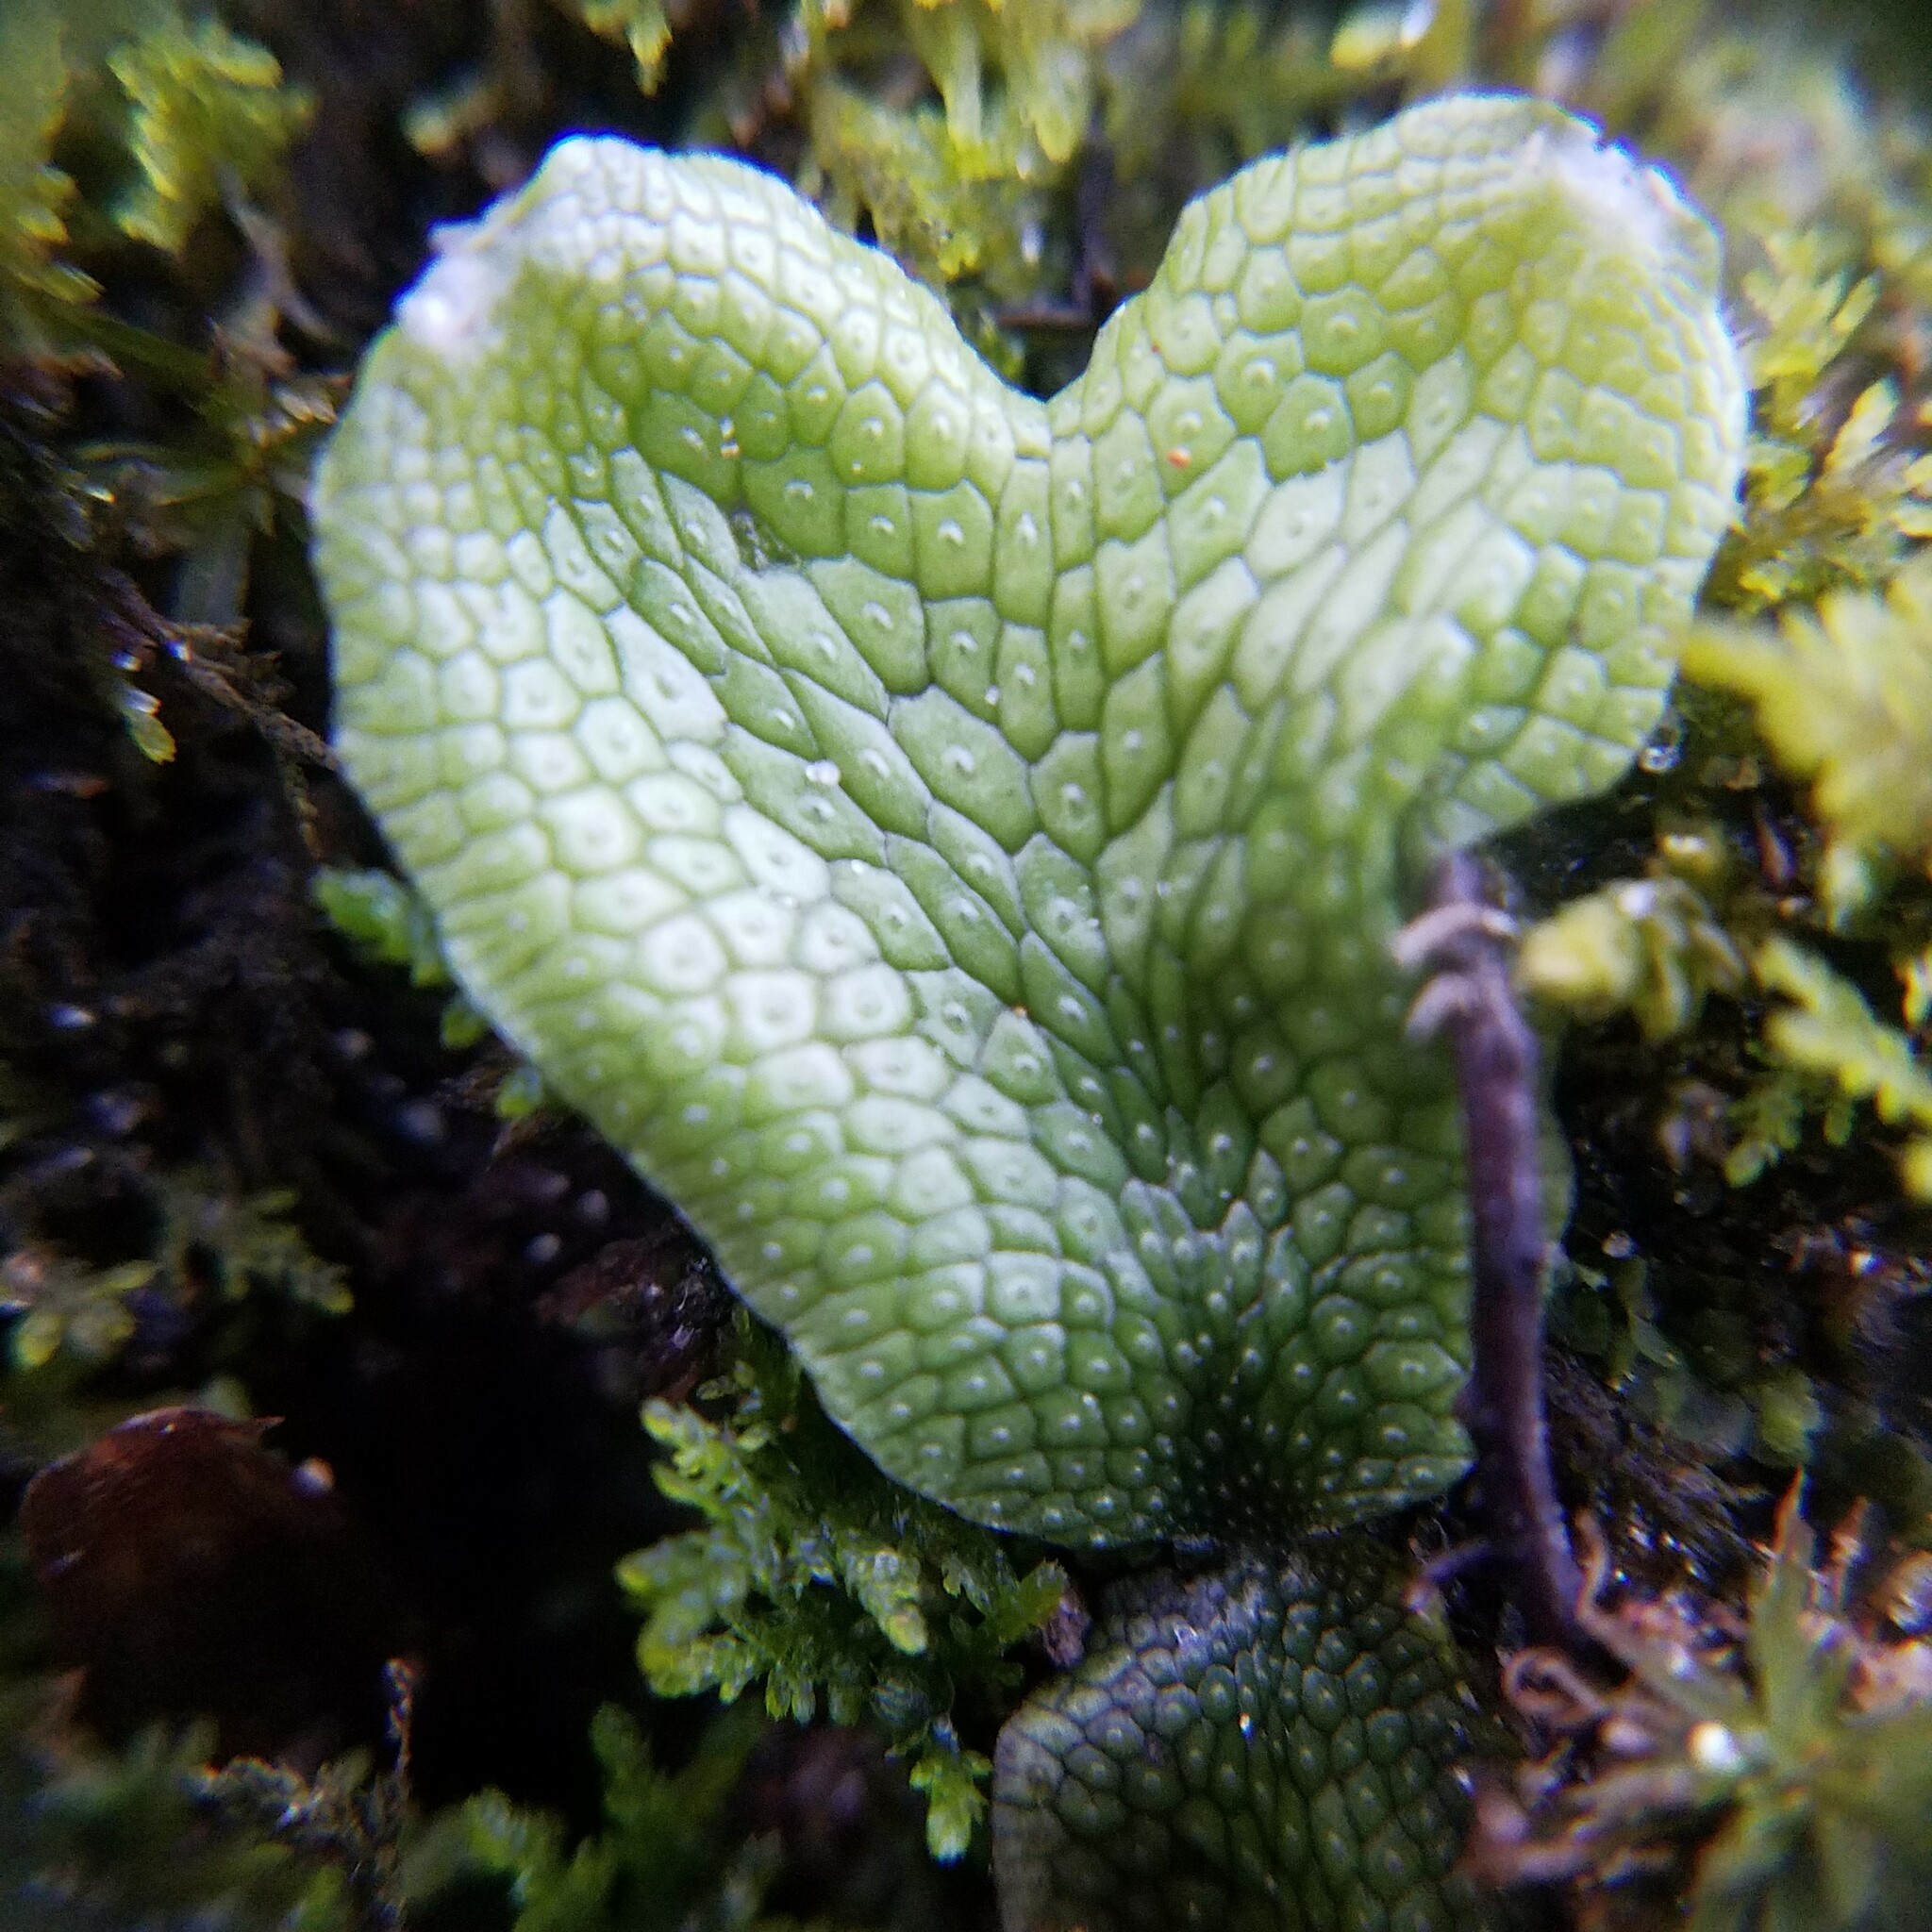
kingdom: Plantae
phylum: Marchantiophyta
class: Marchantiopsida
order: Marchantiales
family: Conocephalaceae
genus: Conocephalum
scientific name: Conocephalum salebrosum
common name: Cat-tongue liverwort
